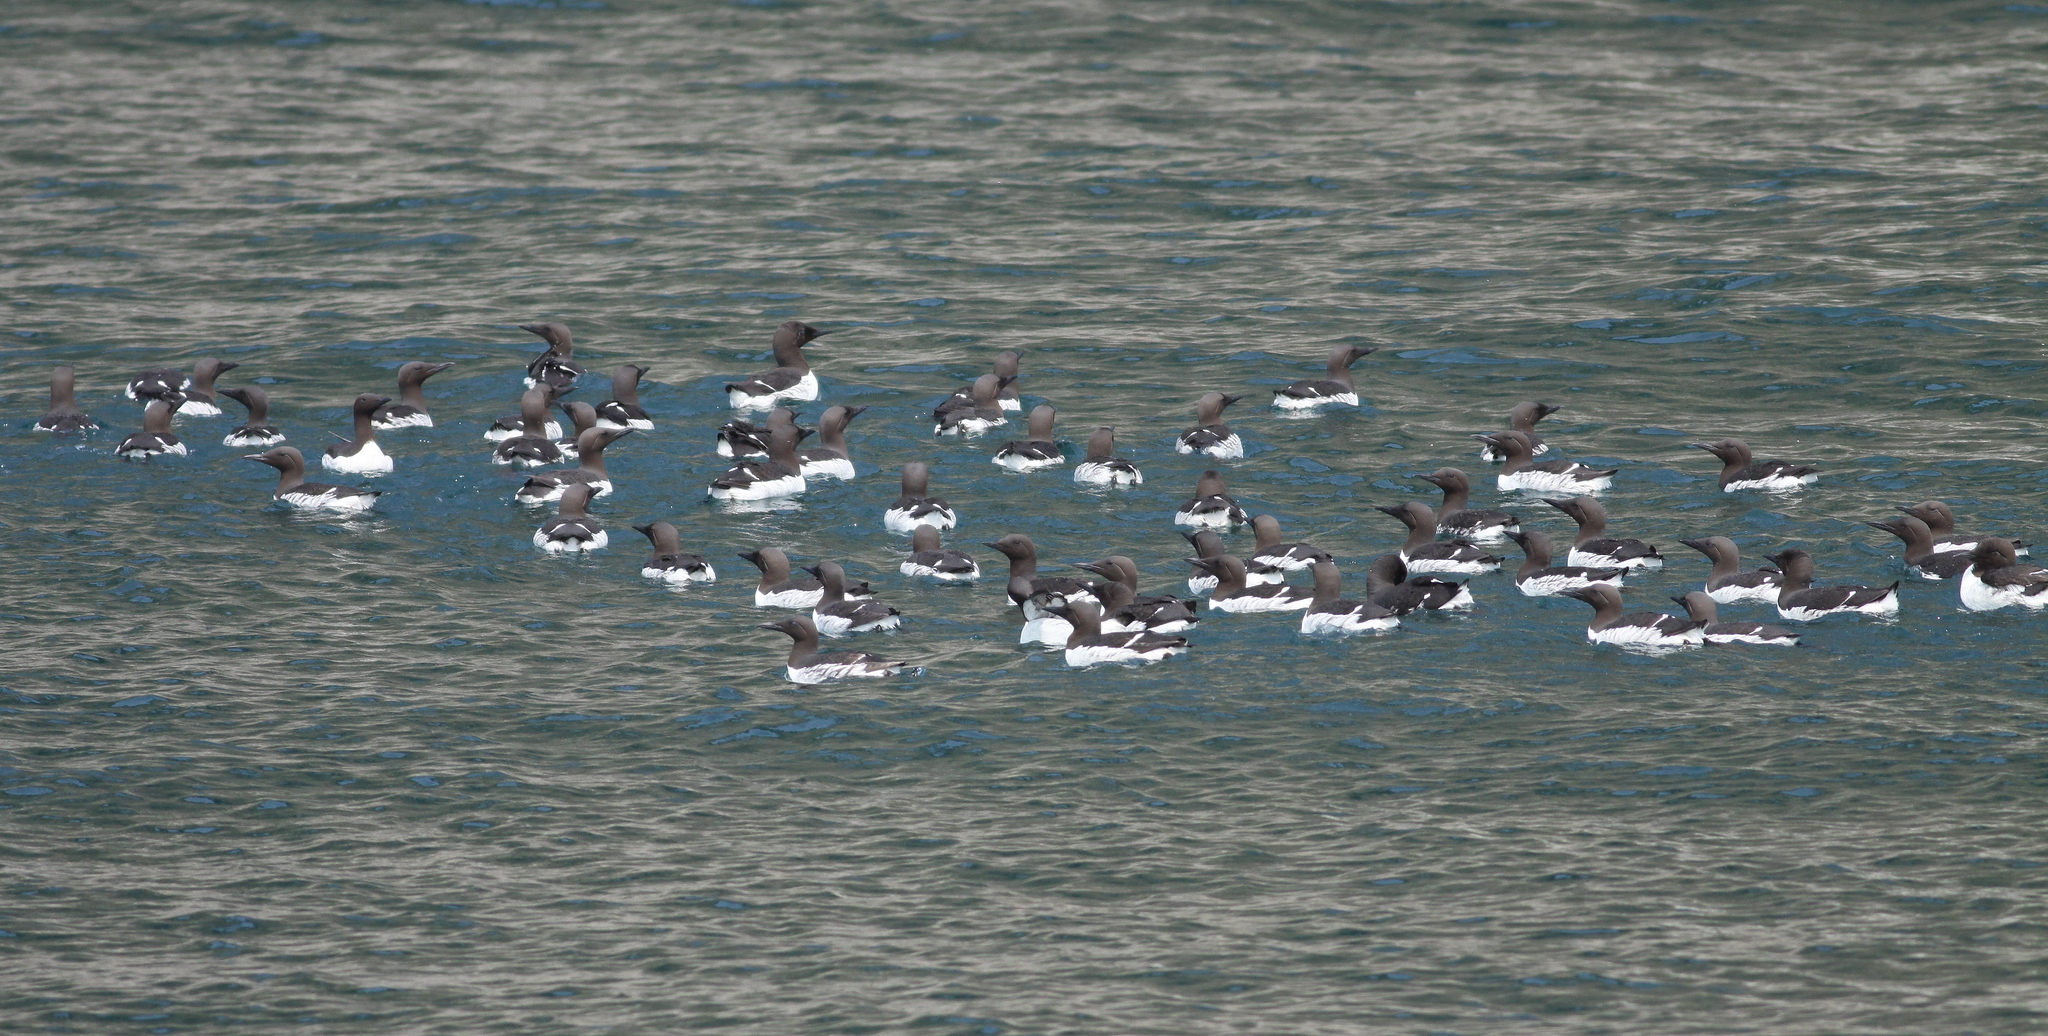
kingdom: Animalia
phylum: Chordata
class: Aves
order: Charadriiformes
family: Alcidae
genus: Uria
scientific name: Uria aalge
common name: Common murre
